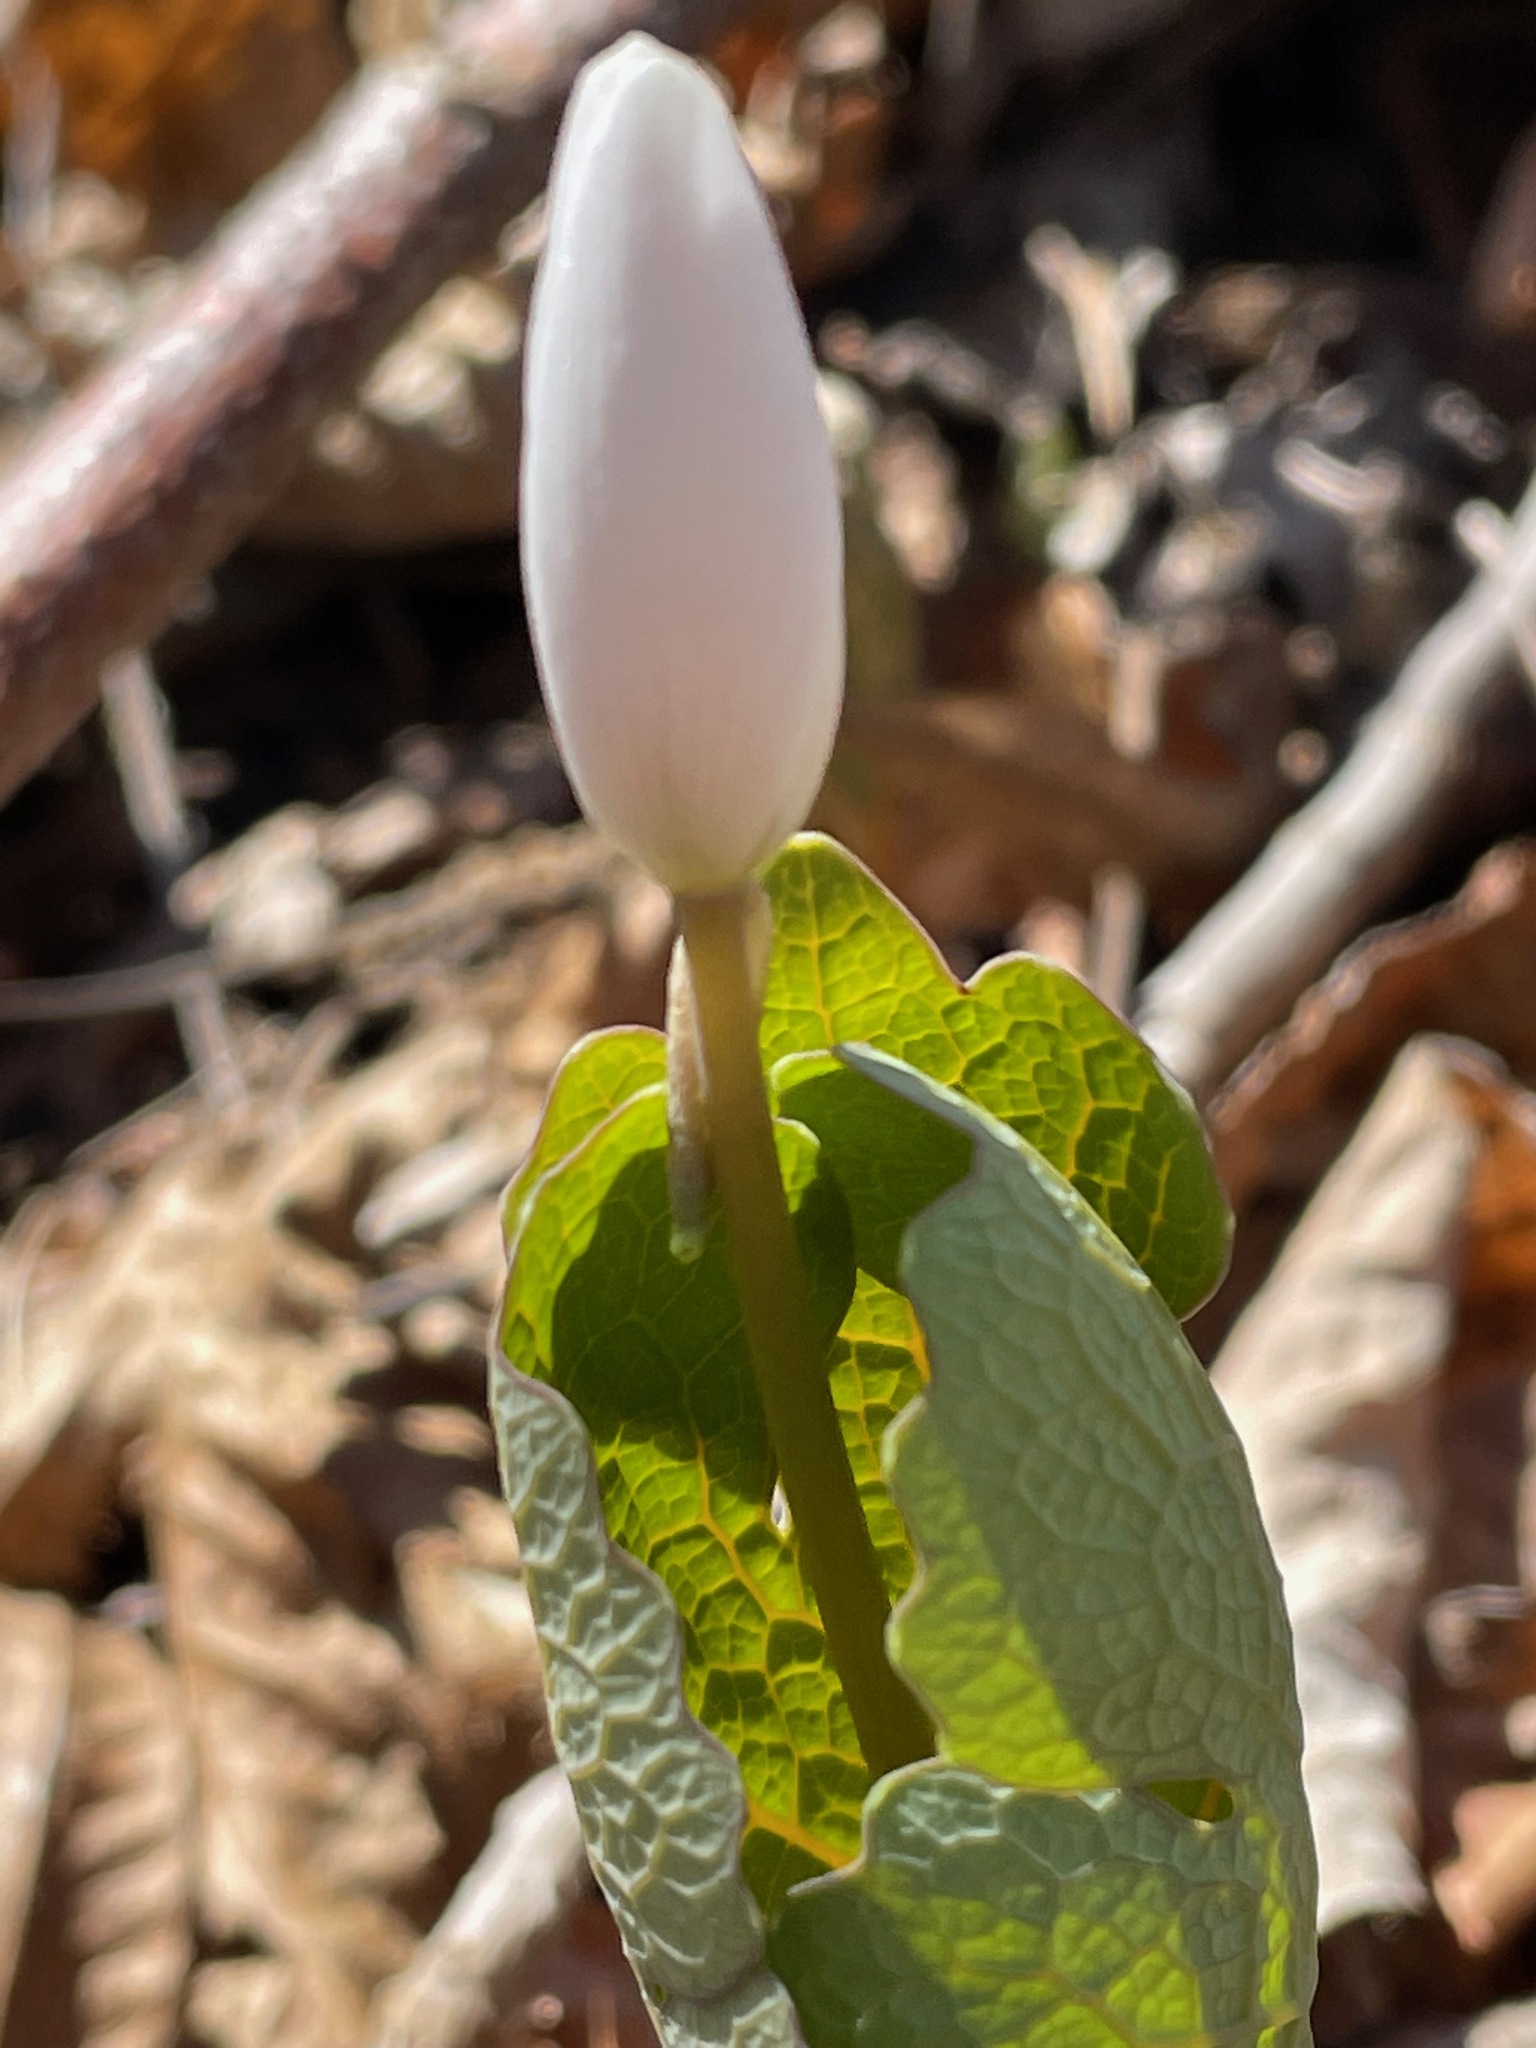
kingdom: Plantae
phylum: Tracheophyta
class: Magnoliopsida
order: Ranunculales
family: Papaveraceae
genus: Sanguinaria
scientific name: Sanguinaria canadensis
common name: Bloodroot
